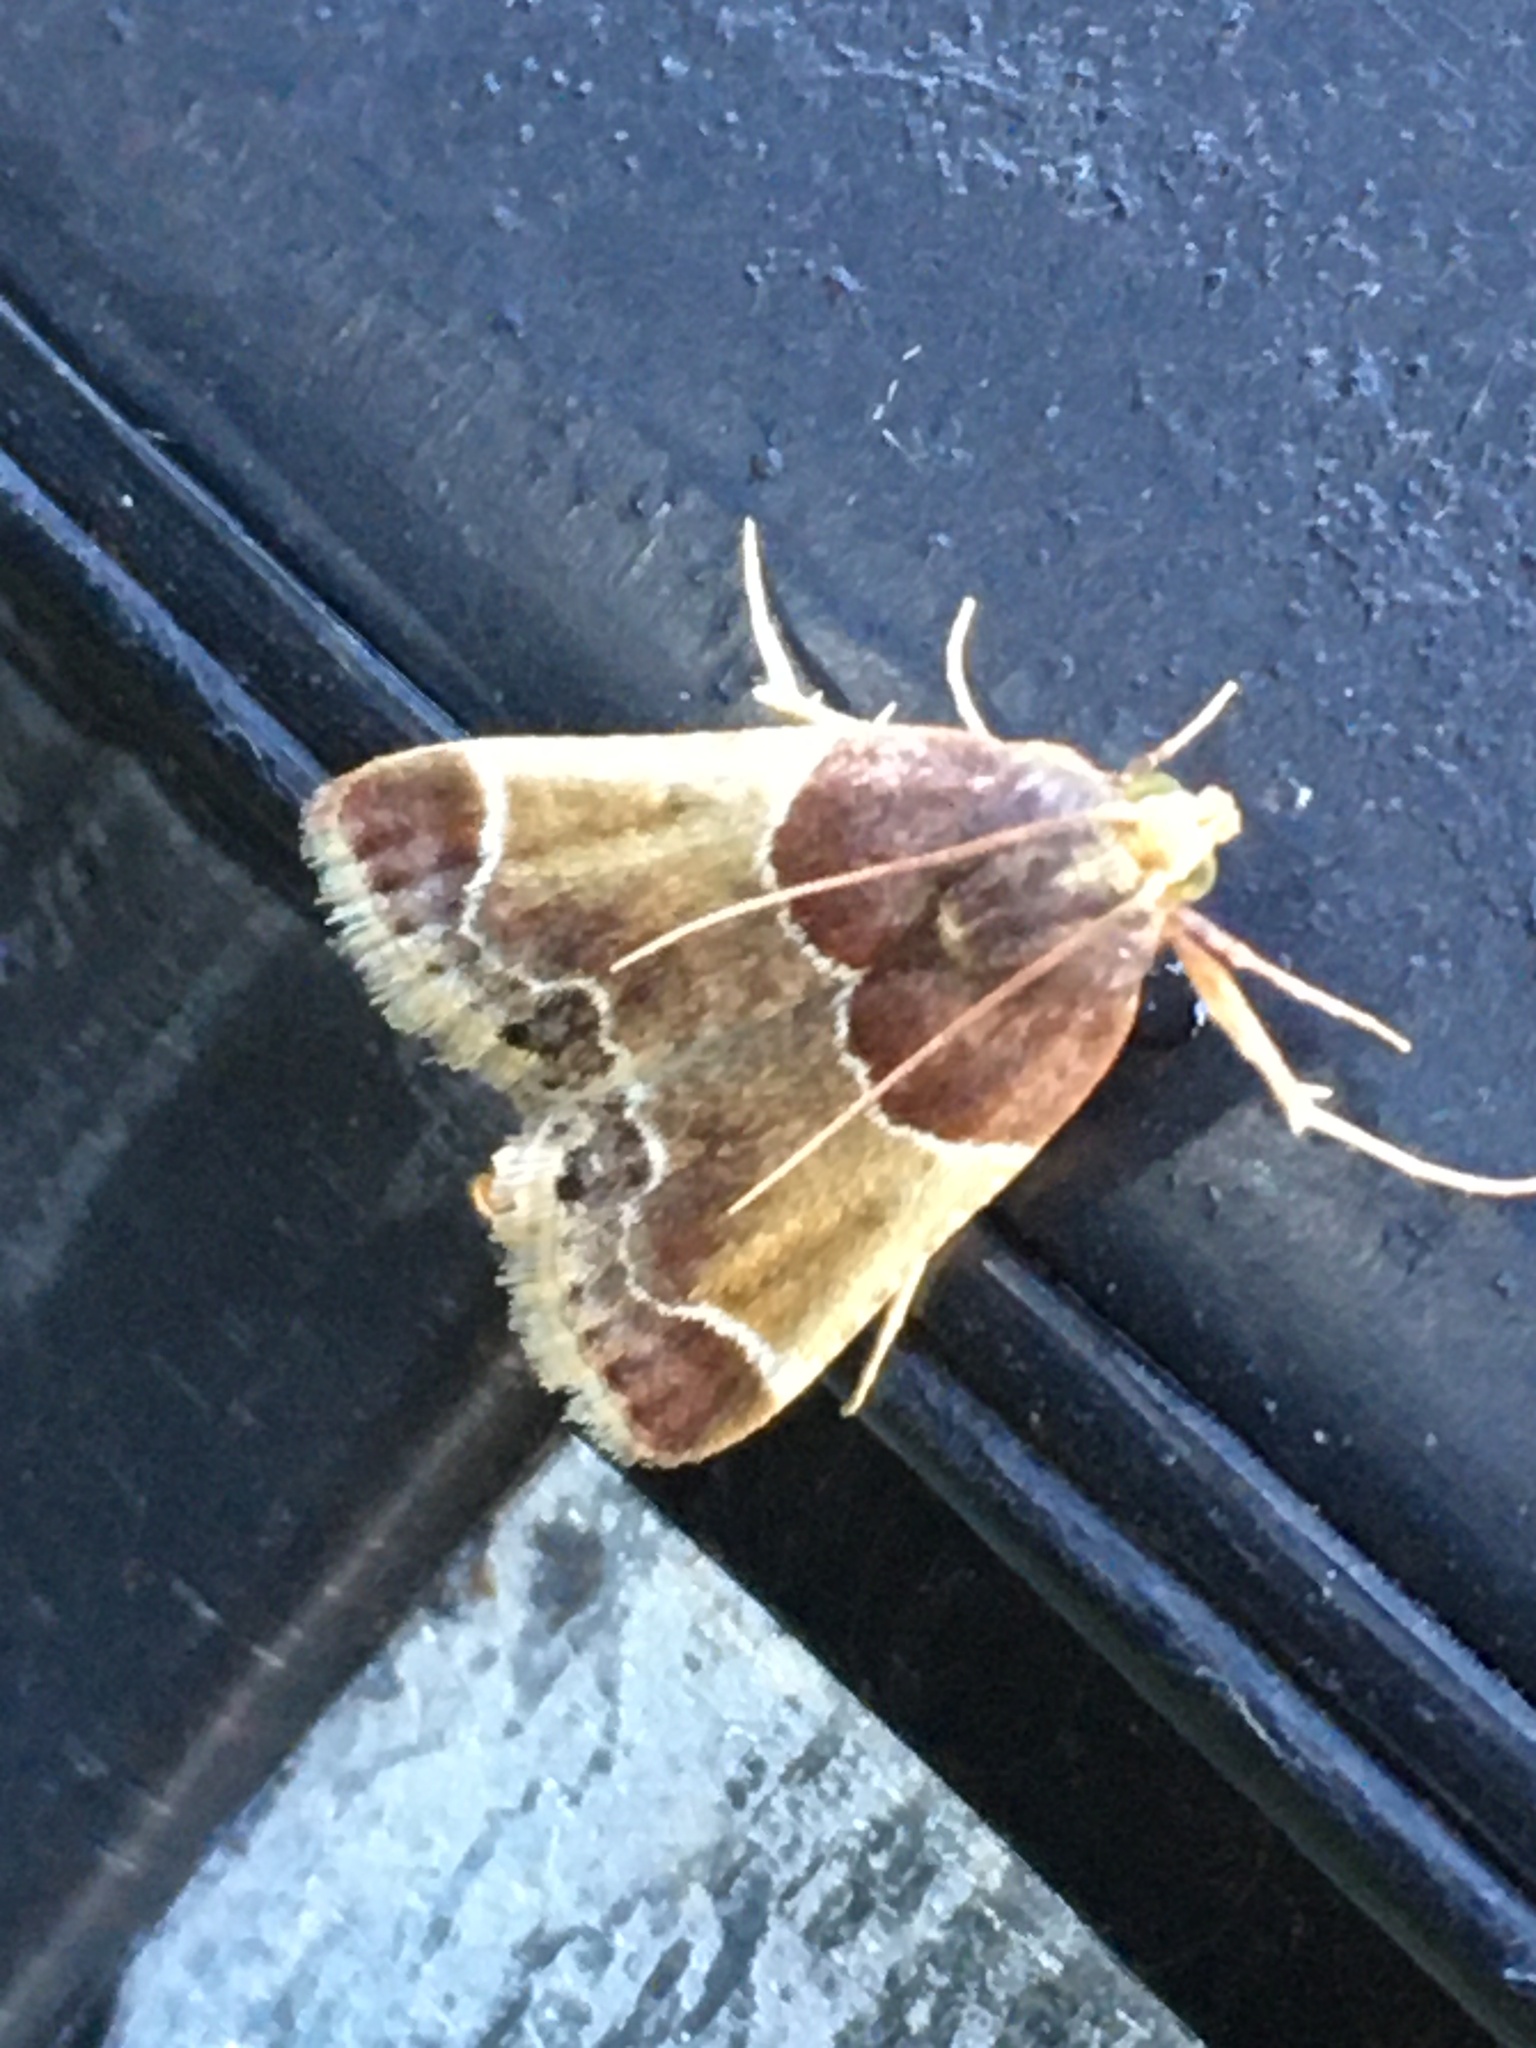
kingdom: Animalia
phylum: Arthropoda
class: Insecta
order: Lepidoptera
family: Pyralidae
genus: Pyralis
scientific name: Pyralis farinalis
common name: Meal moth
